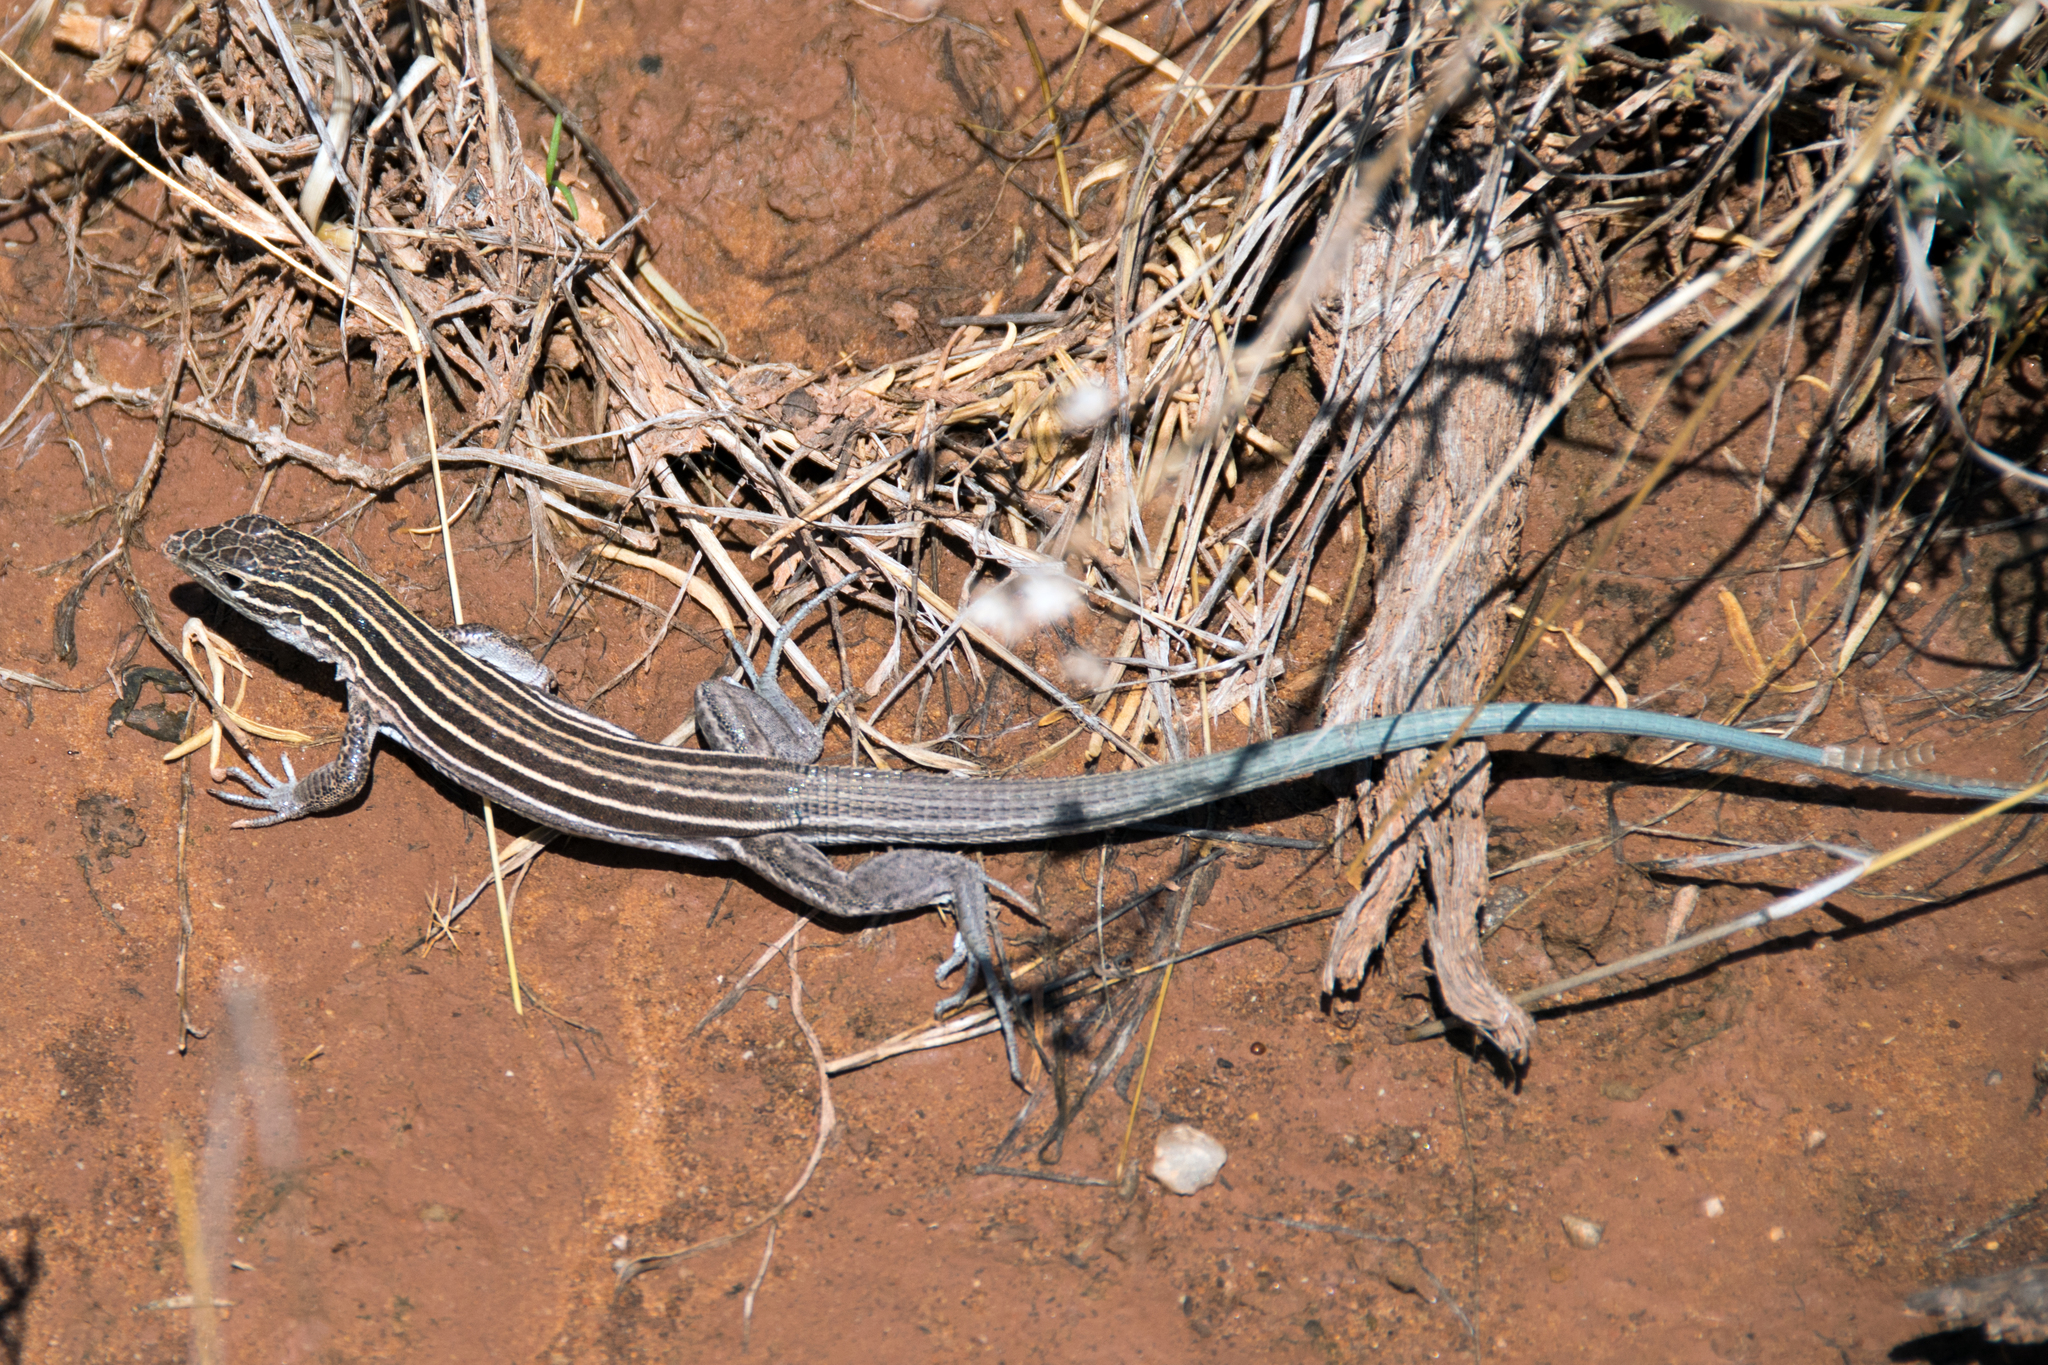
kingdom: Animalia
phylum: Chordata
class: Squamata
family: Teiidae
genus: Aspidoscelis
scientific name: Aspidoscelis velox
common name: Plateau striped whiptail
